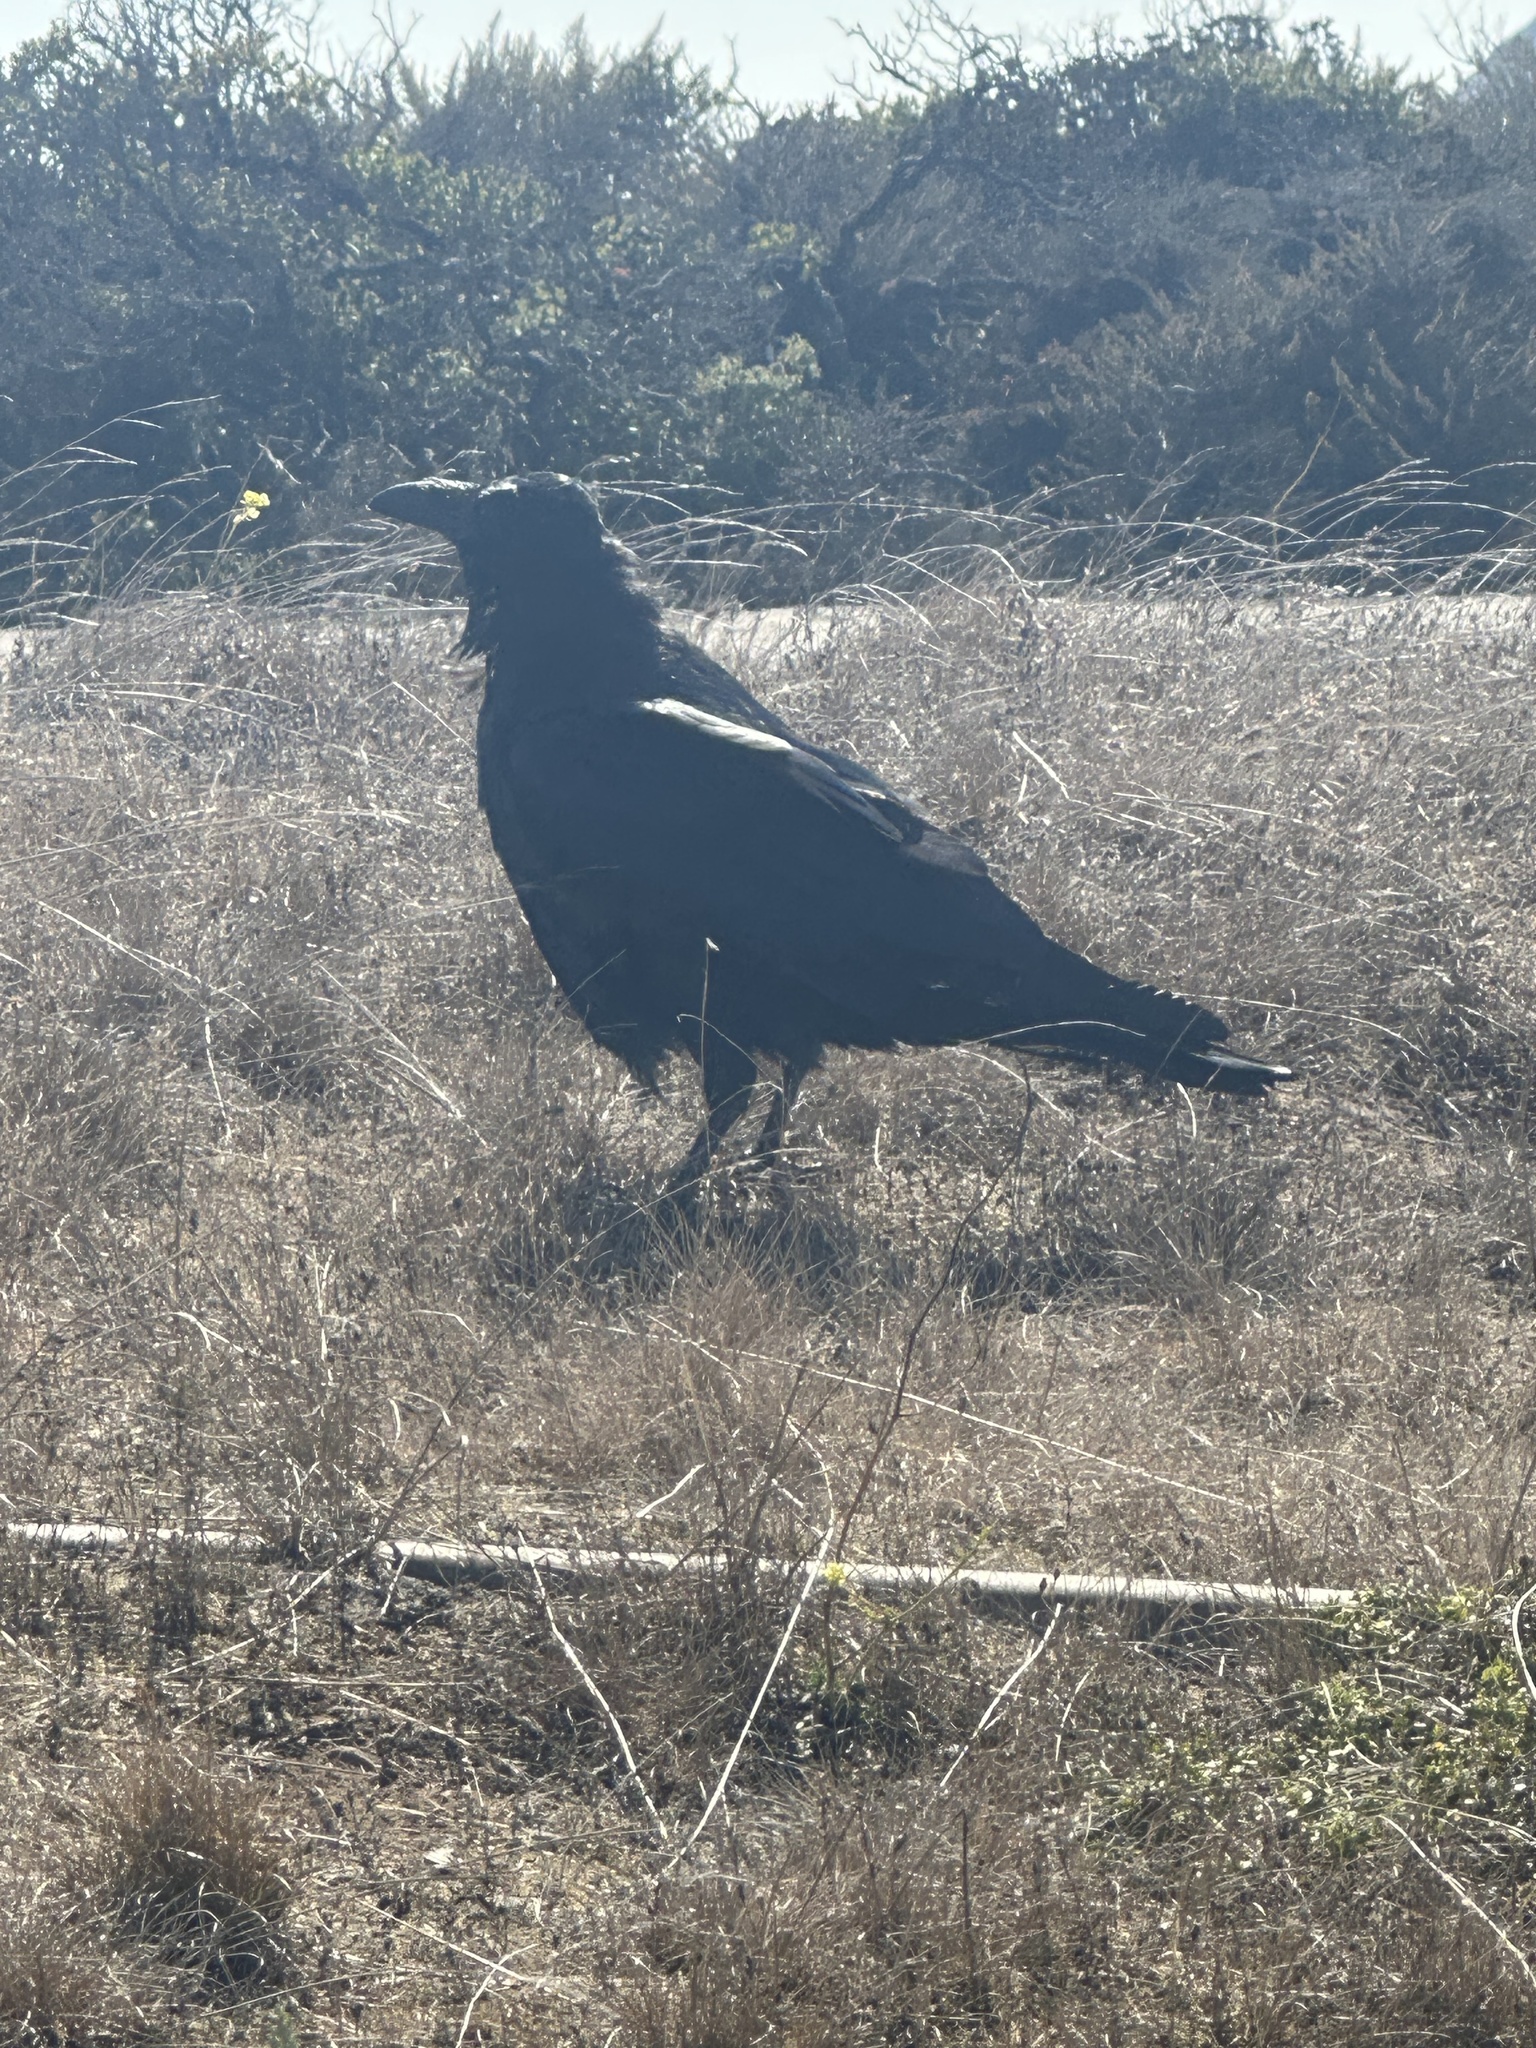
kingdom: Animalia
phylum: Chordata
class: Aves
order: Passeriformes
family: Corvidae
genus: Corvus
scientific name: Corvus corax
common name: Common raven
